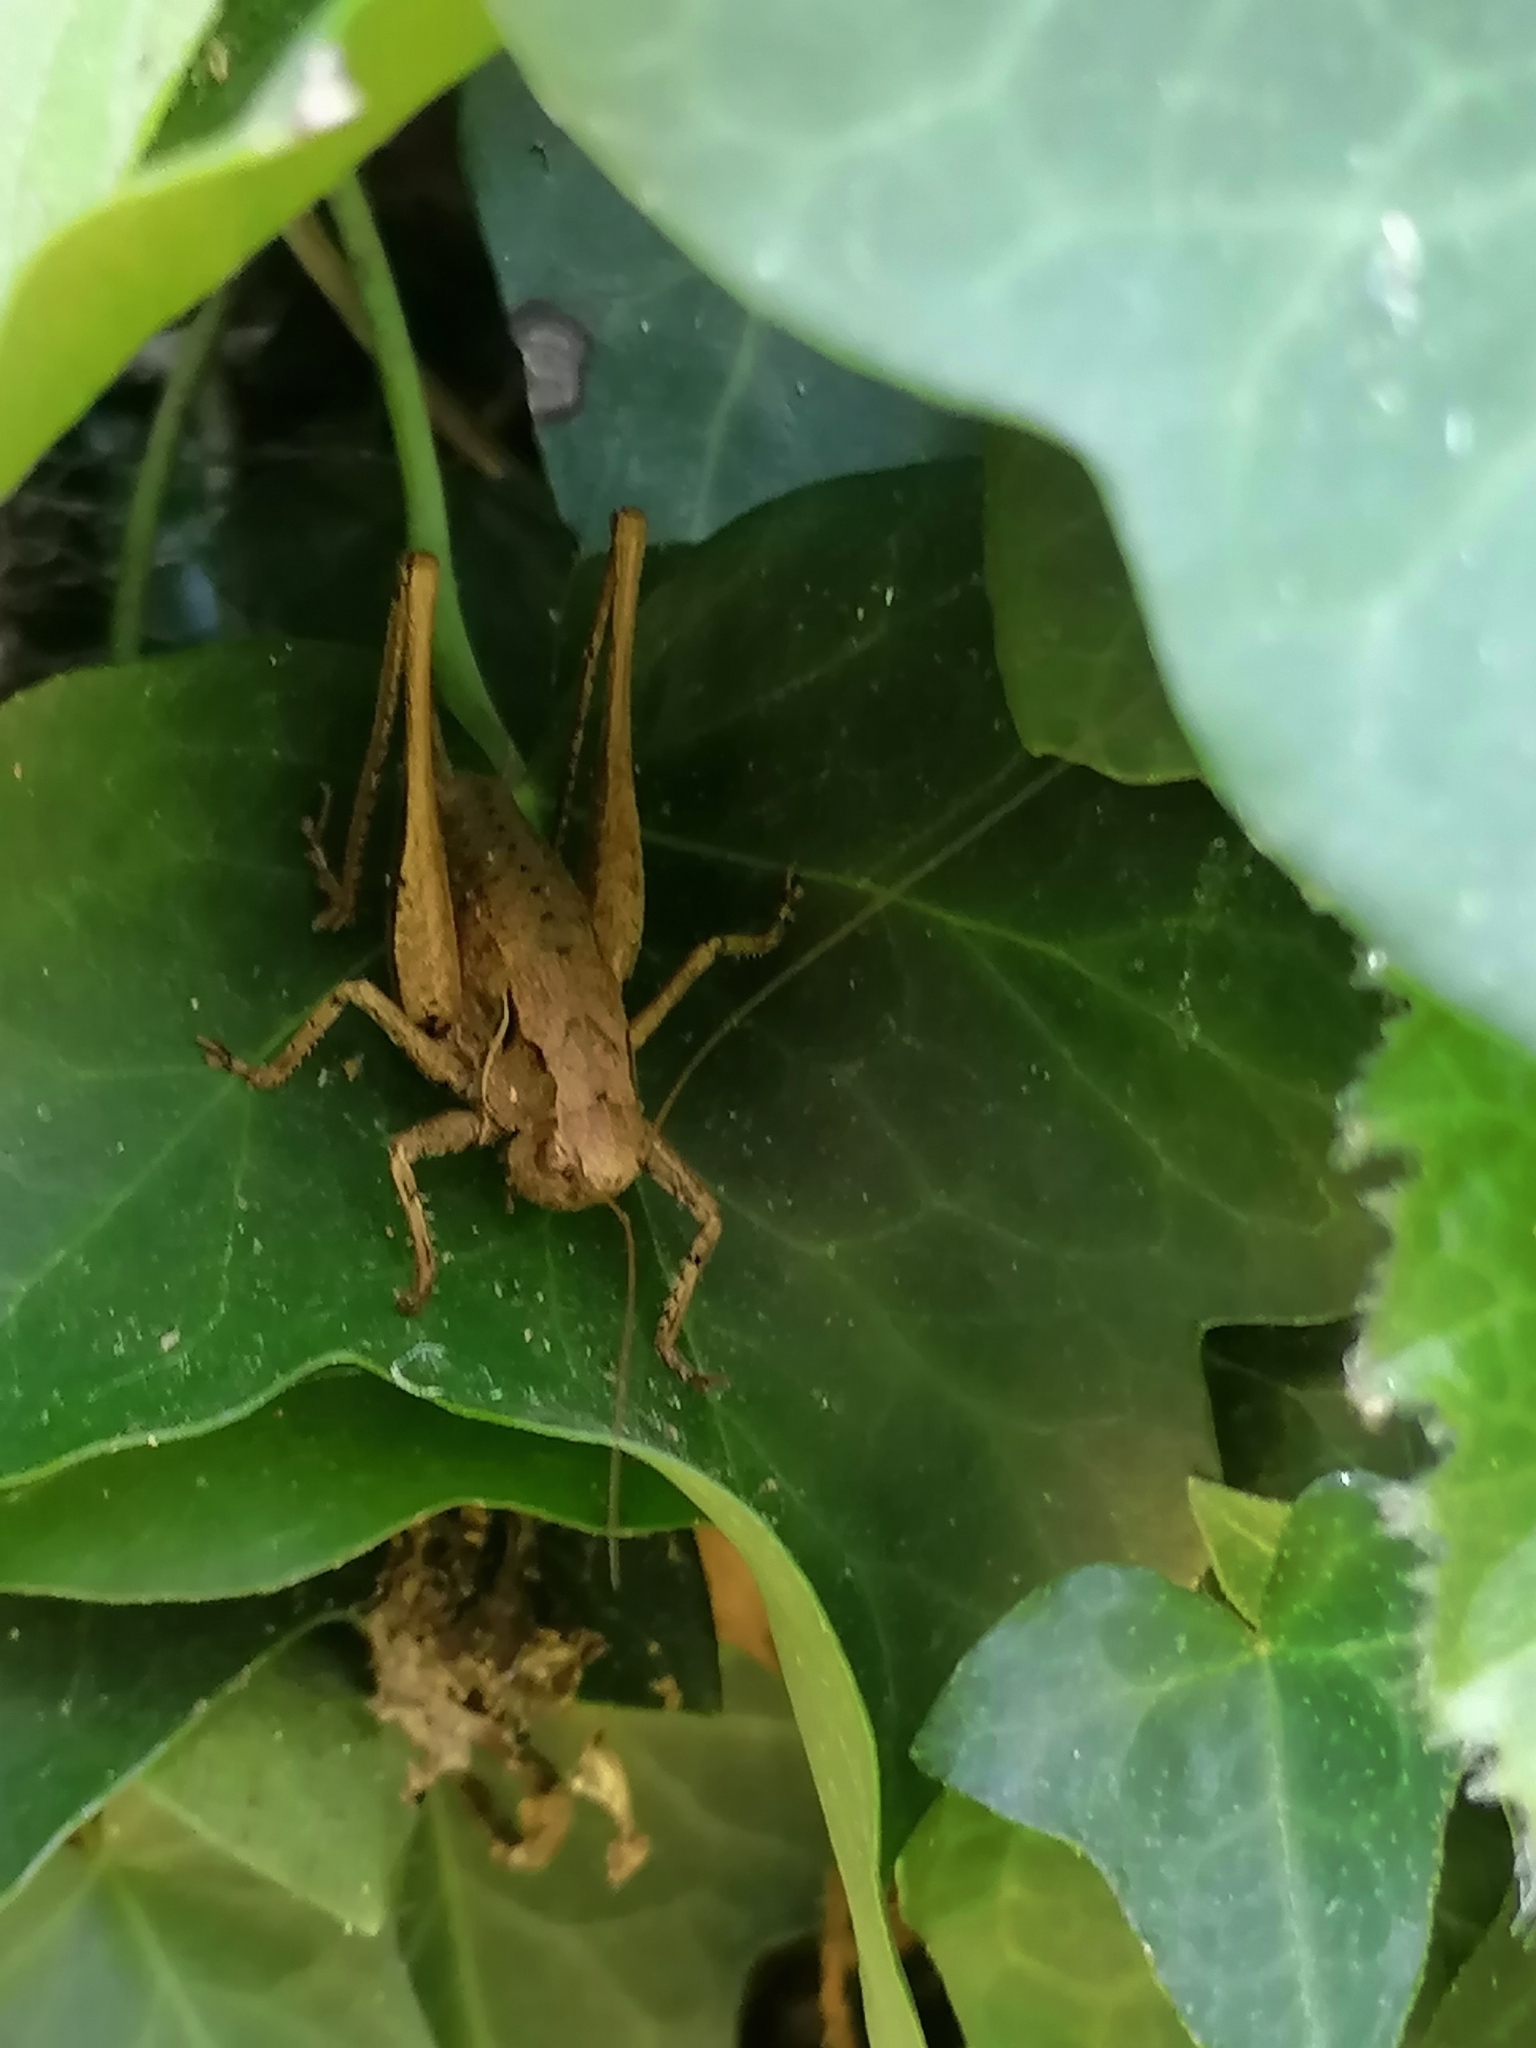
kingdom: Animalia
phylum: Arthropoda
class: Insecta
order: Orthoptera
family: Tettigoniidae
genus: Pholidoptera
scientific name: Pholidoptera griseoaptera
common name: Dark bush-cricket
